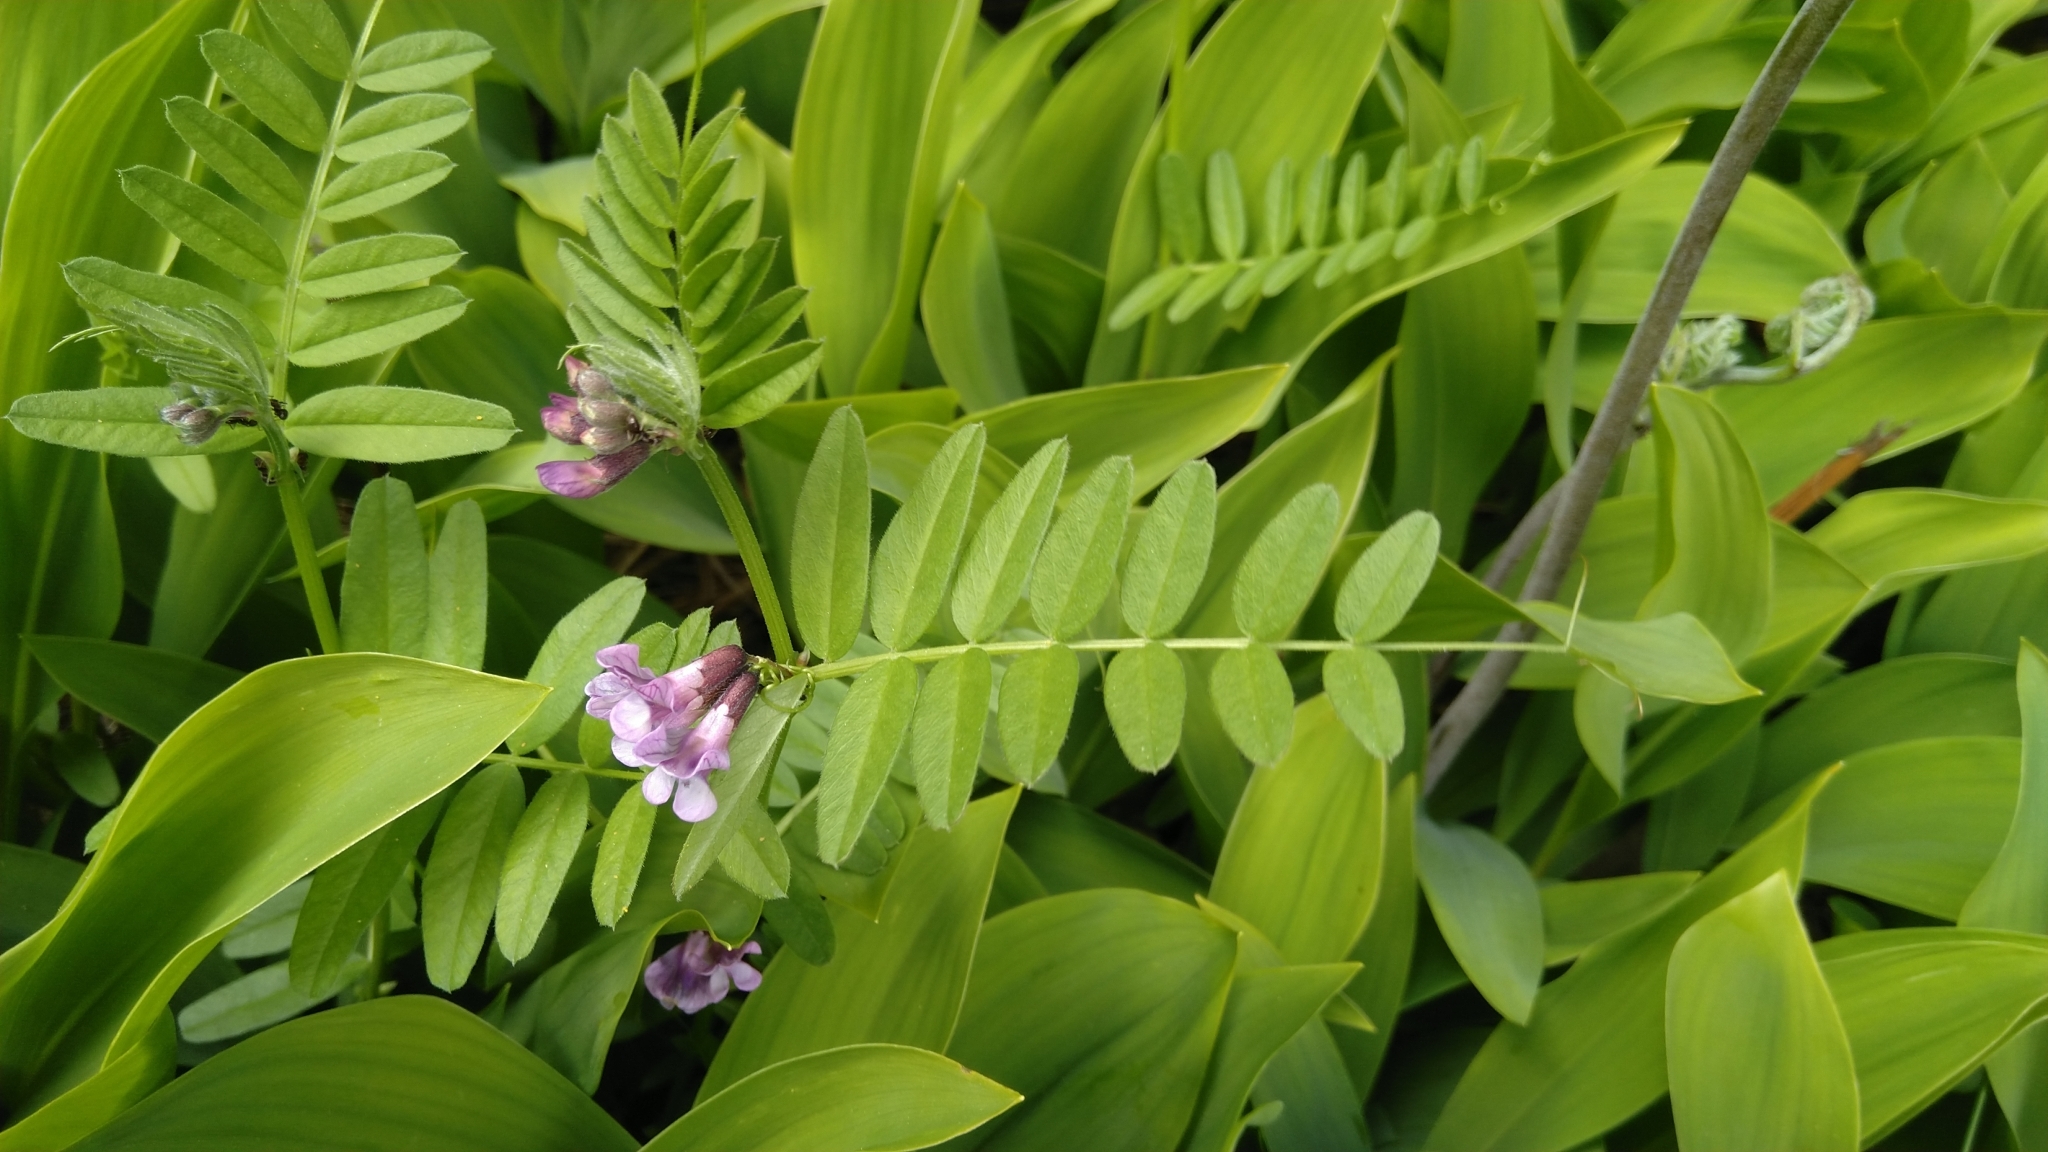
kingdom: Plantae
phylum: Tracheophyta
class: Magnoliopsida
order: Fabales
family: Fabaceae
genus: Vicia
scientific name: Vicia sepium
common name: Bush vetch
